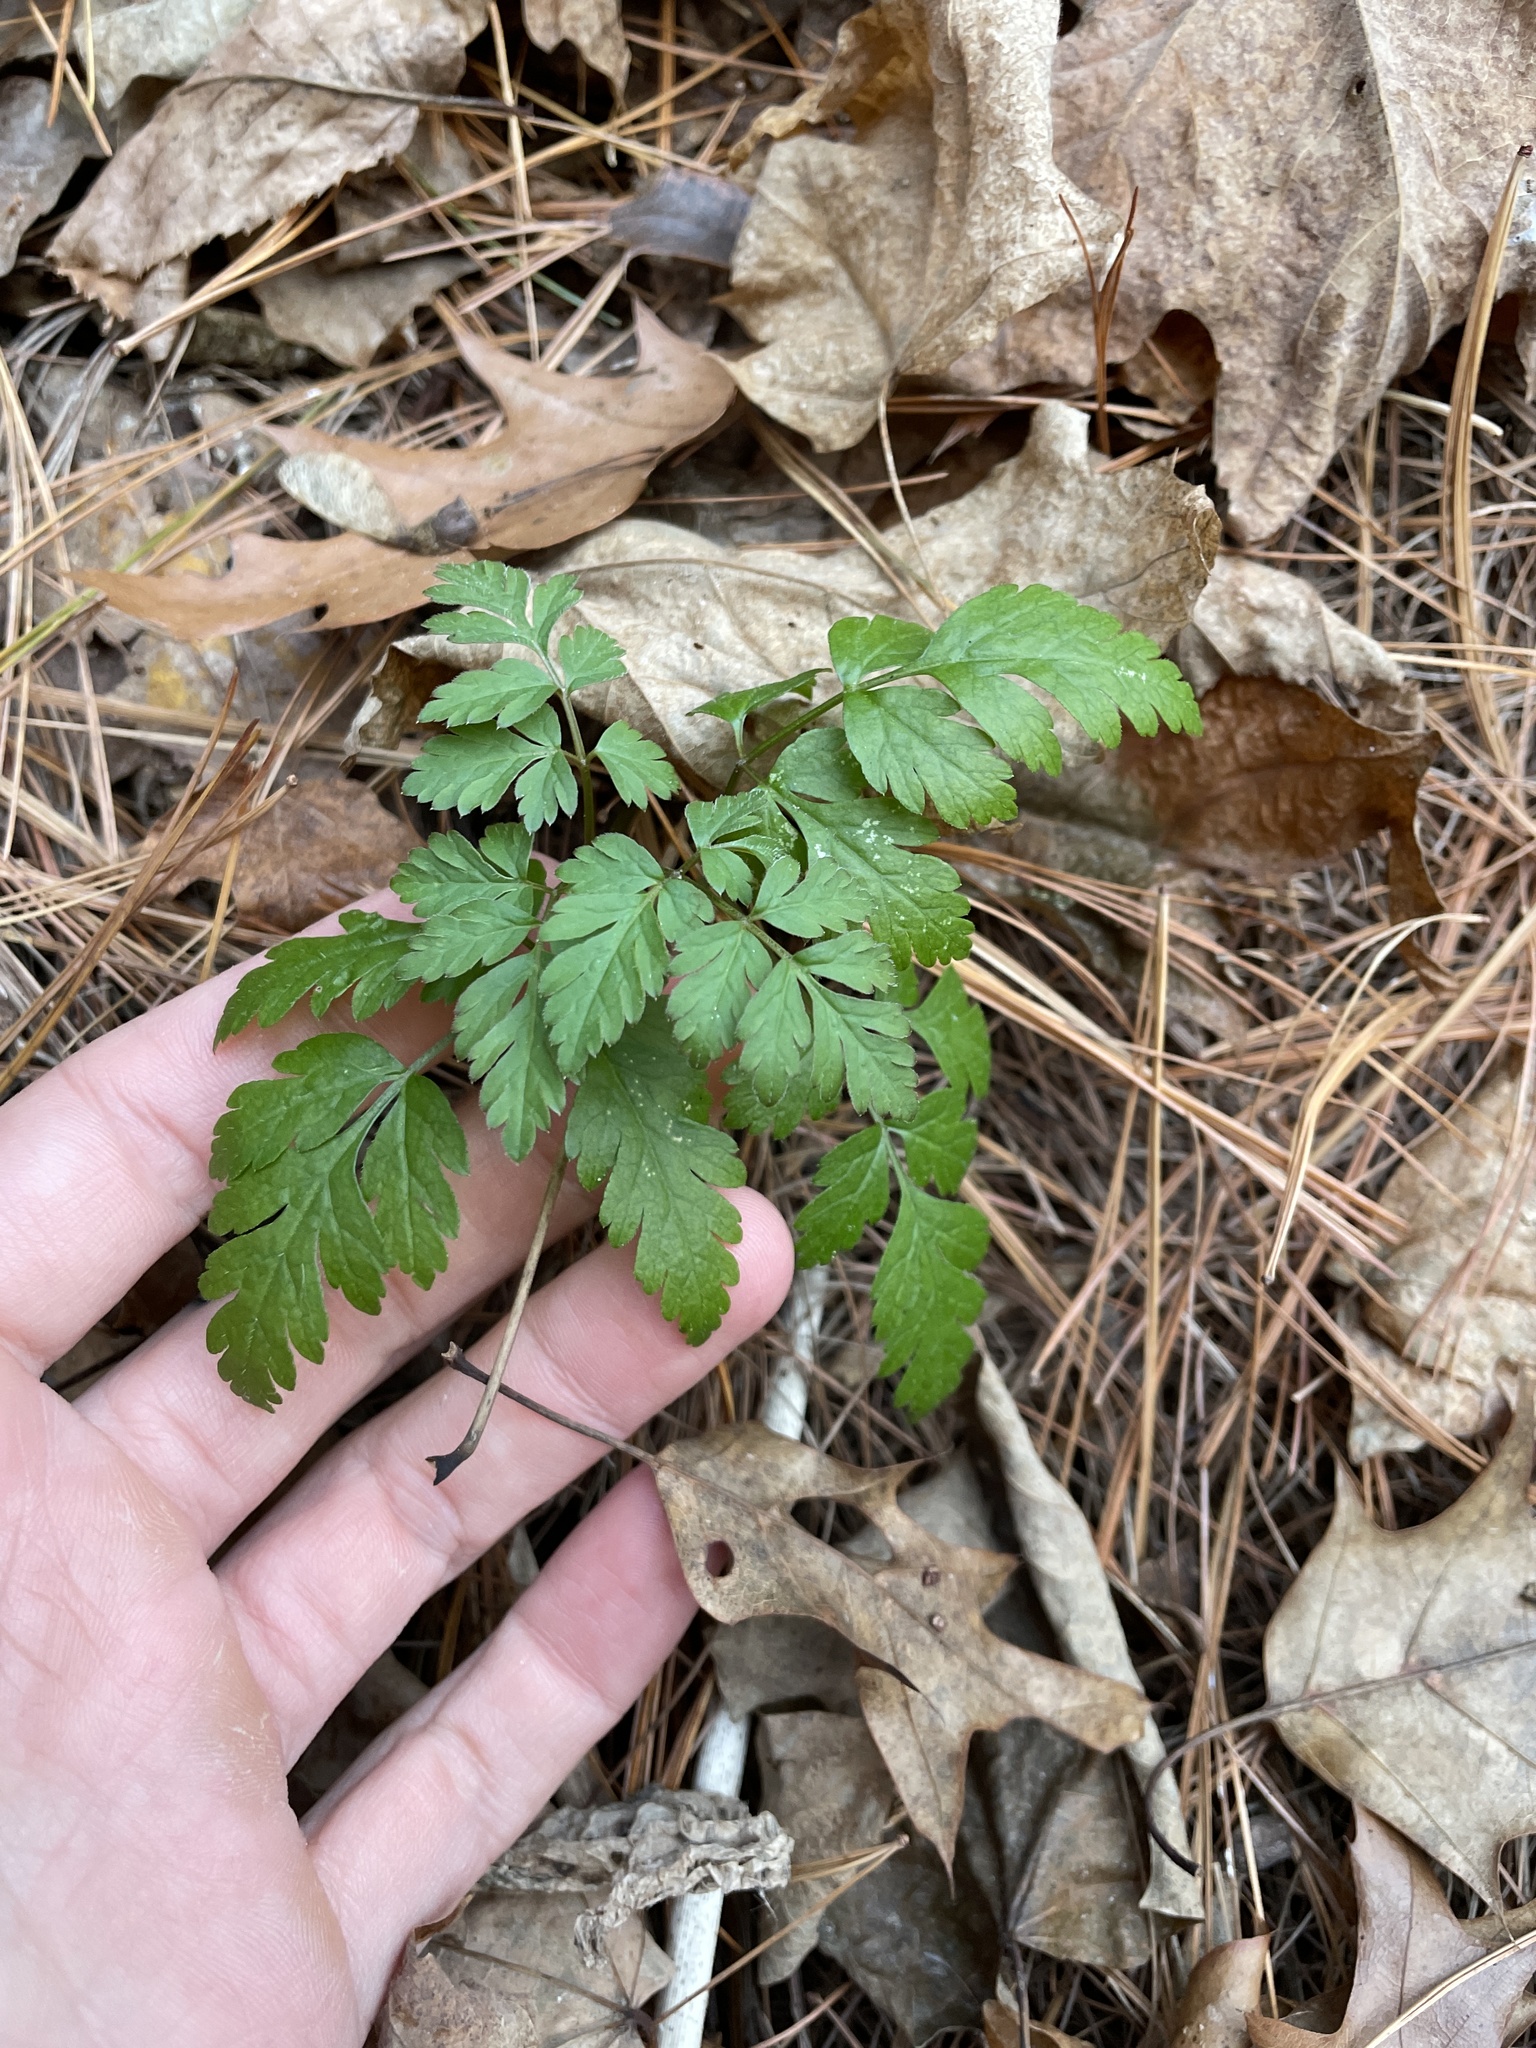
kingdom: Plantae
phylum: Tracheophyta
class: Magnoliopsida
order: Apiales
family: Apiaceae
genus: Osmorhiza
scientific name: Osmorhiza longistylis
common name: Smooth sweet cicely
